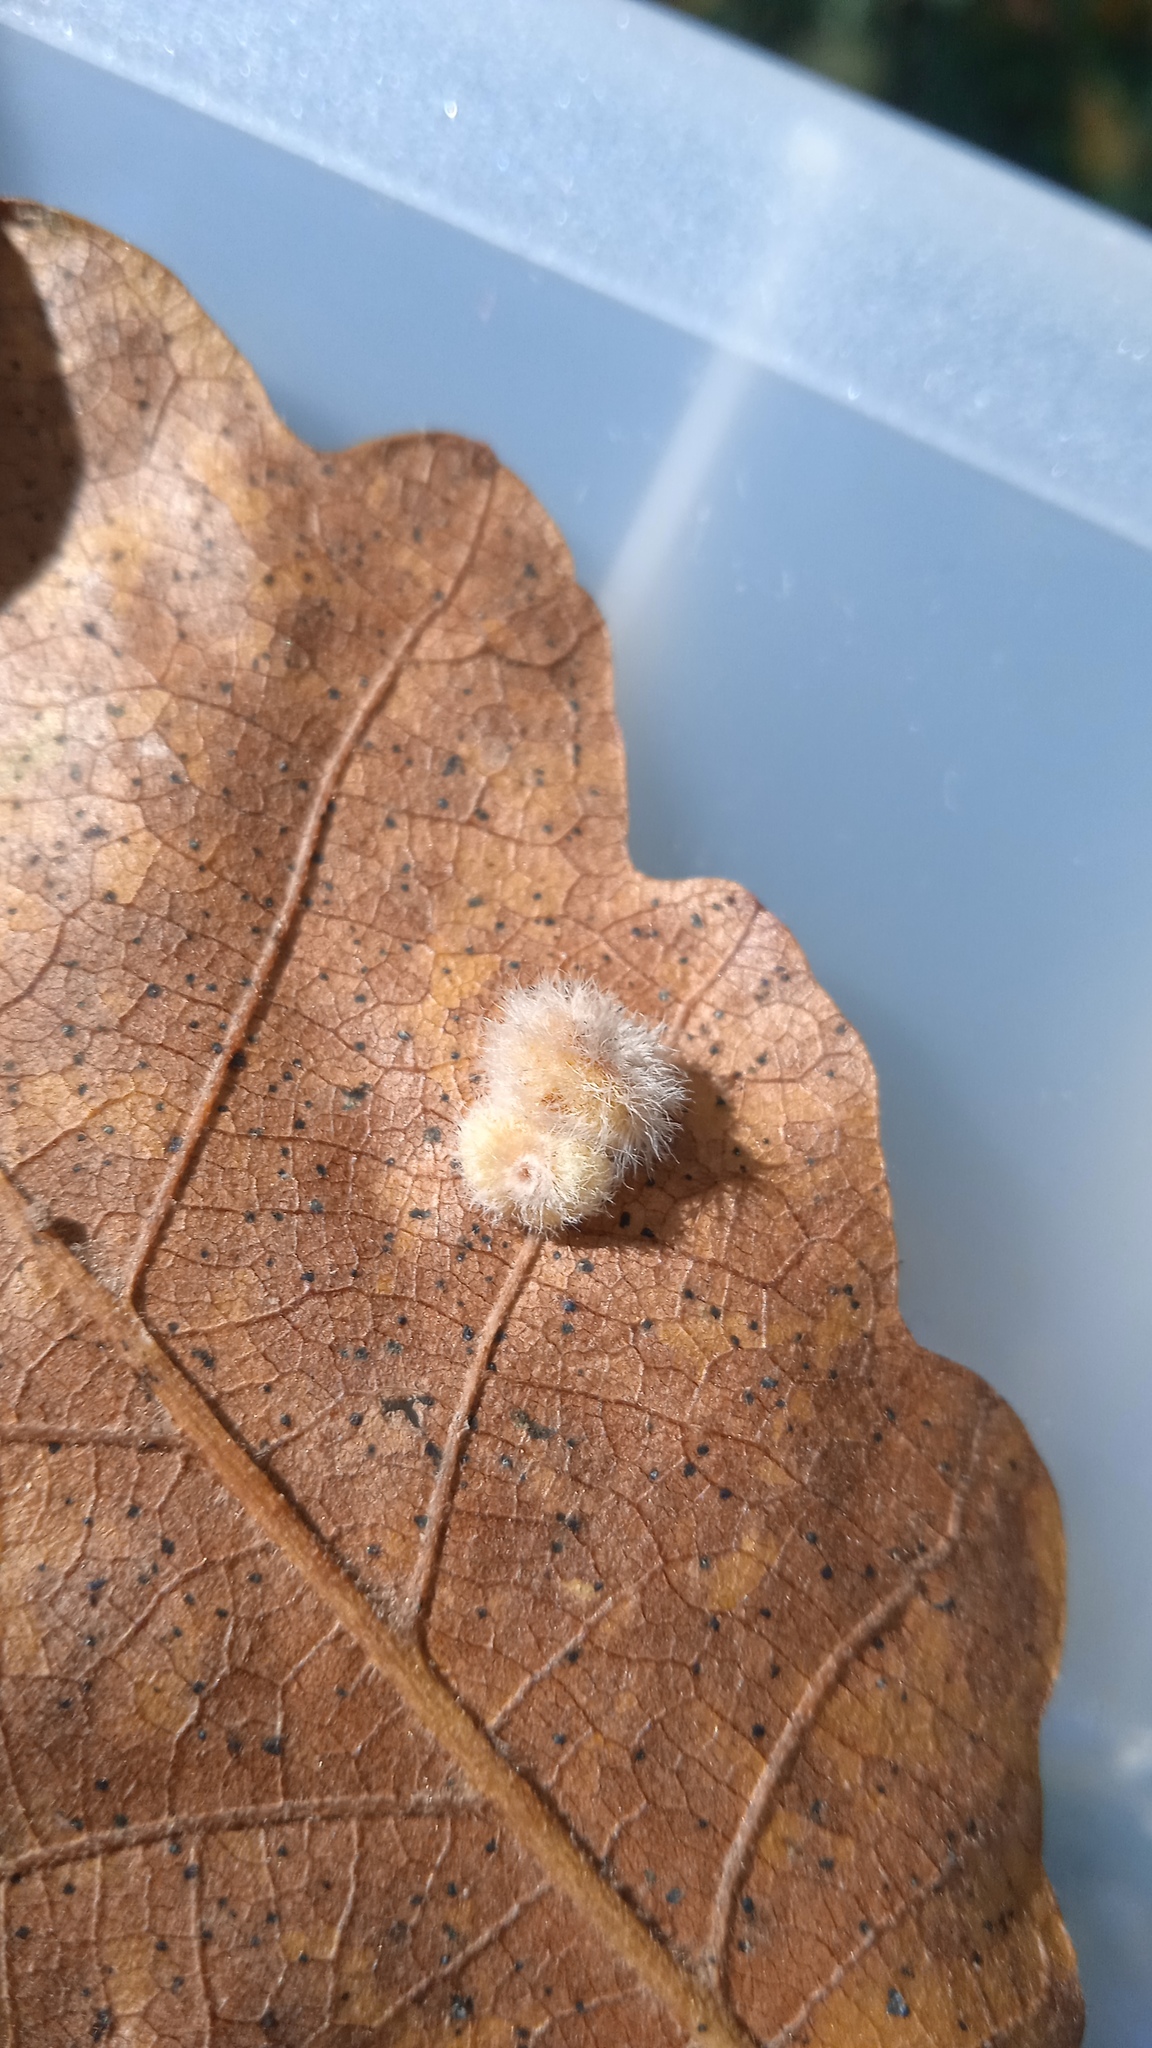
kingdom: Animalia
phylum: Arthropoda
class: Insecta
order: Hymenoptera
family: Cynipidae
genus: Neuroterus
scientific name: Neuroterus lanuginosus
